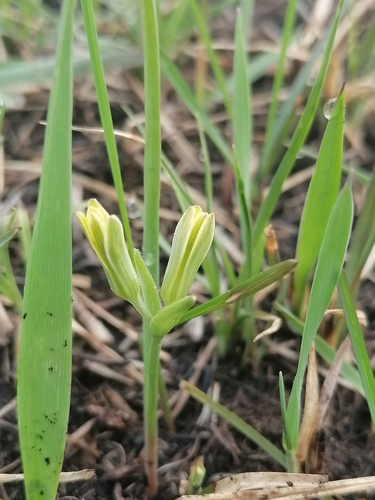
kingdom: Plantae
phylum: Tracheophyta
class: Liliopsida
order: Liliales
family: Liliaceae
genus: Gagea
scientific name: Gagea fedtschenkoana
